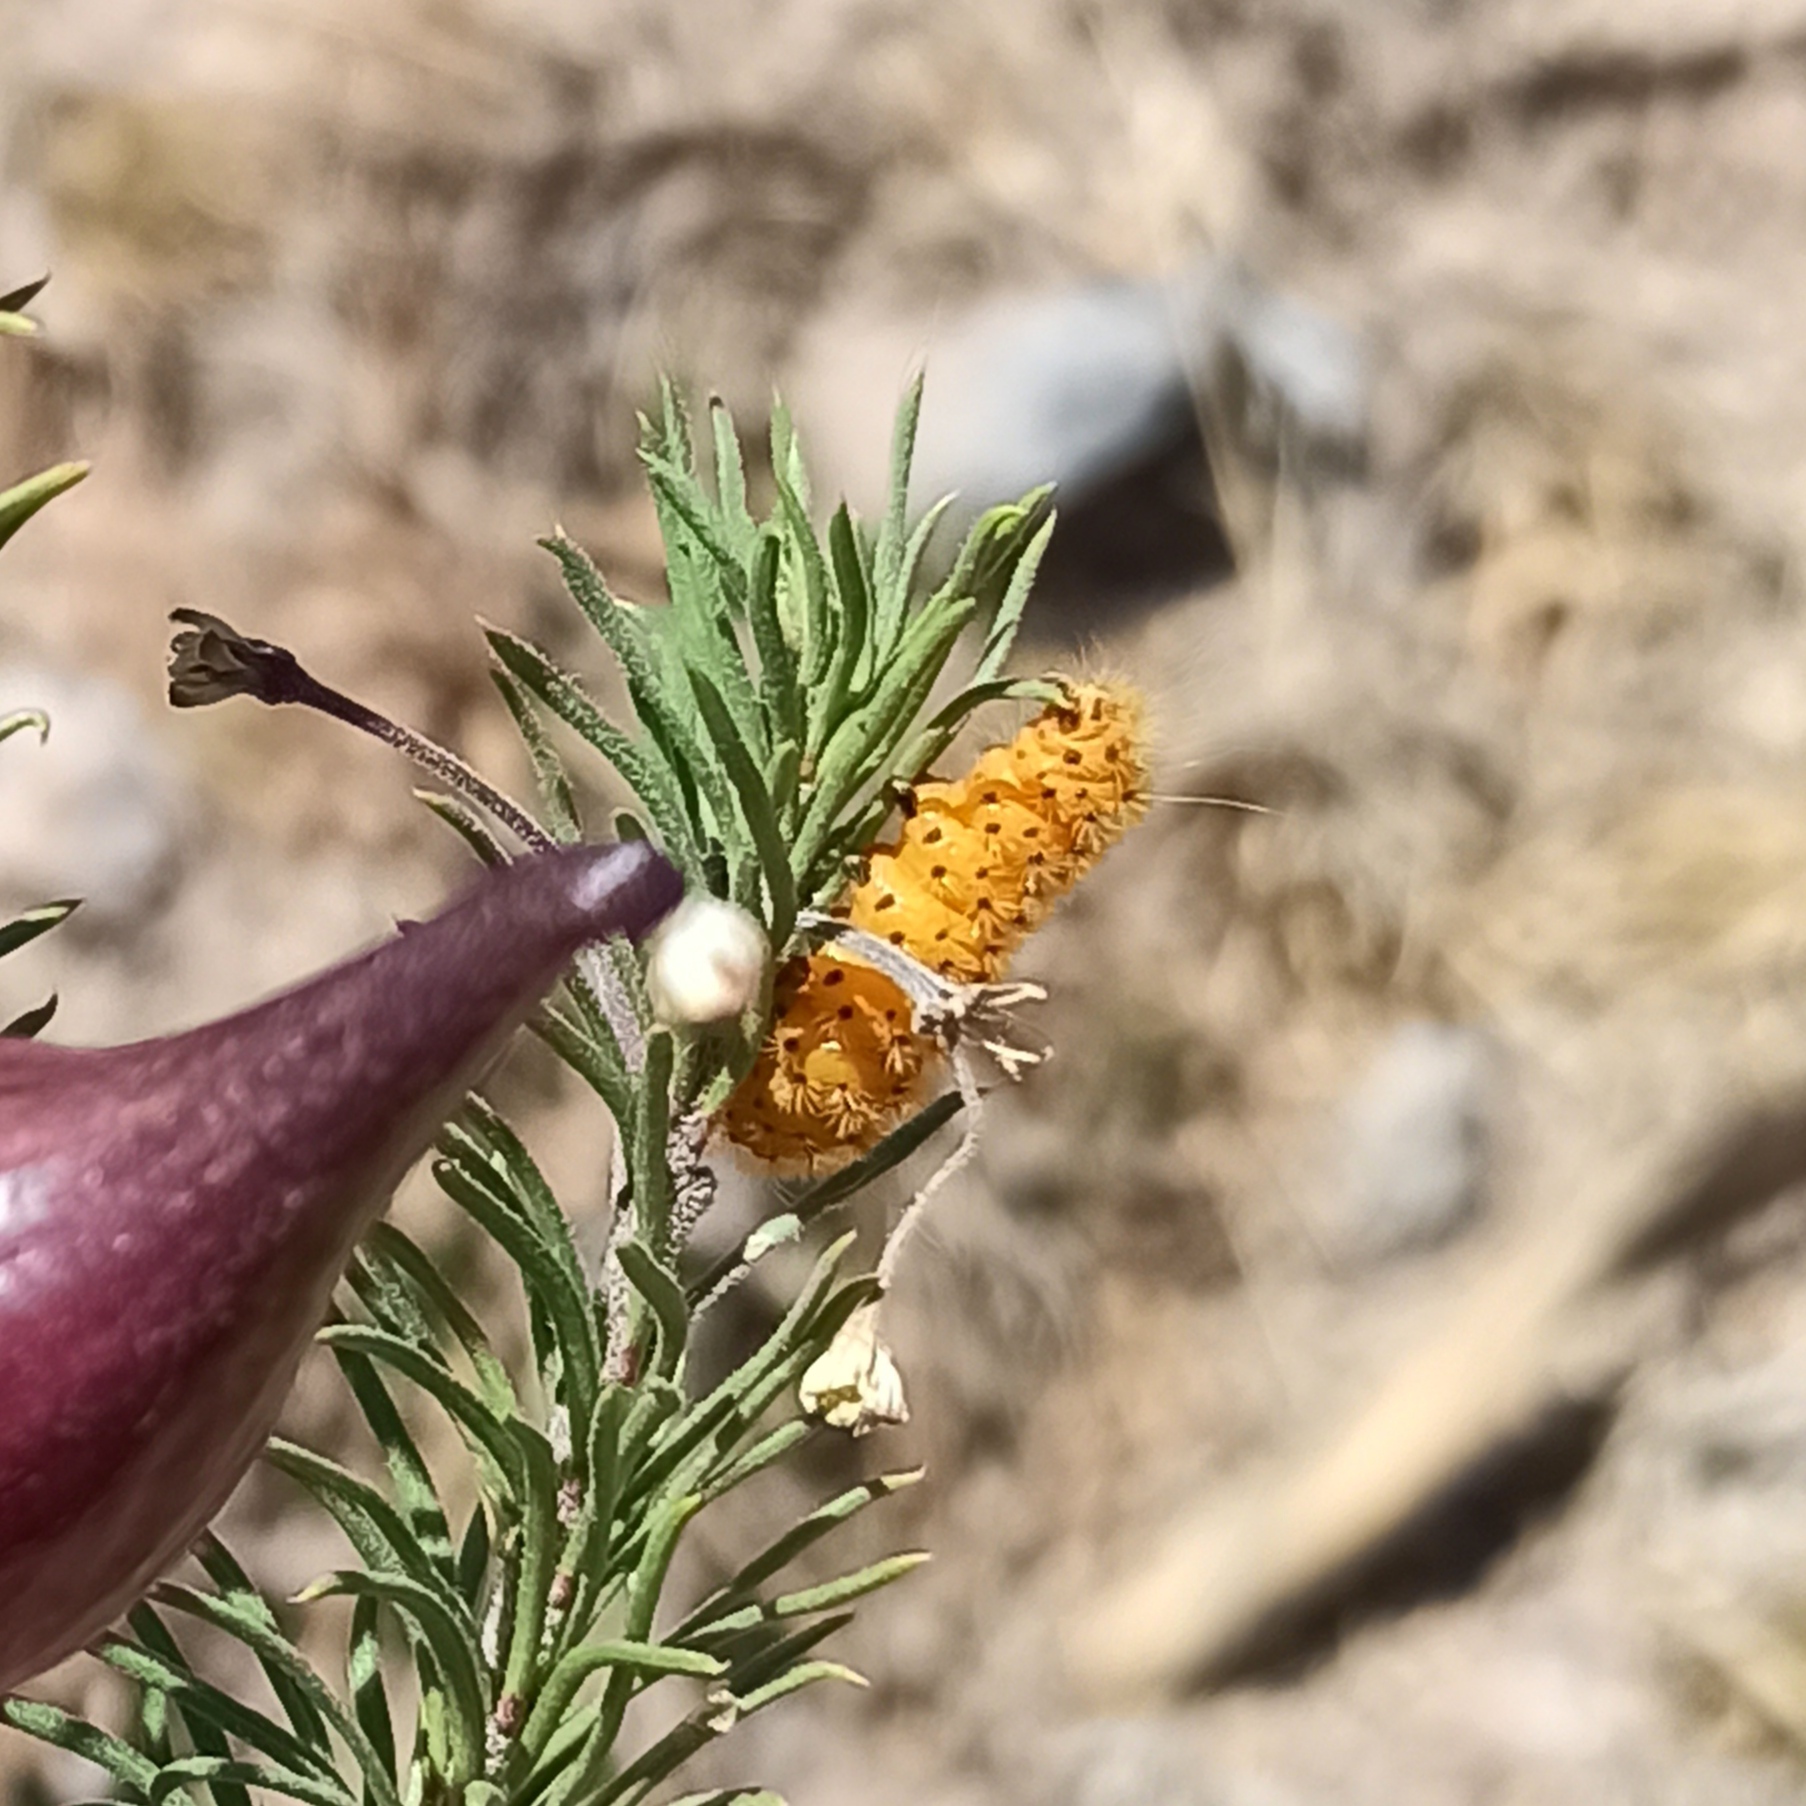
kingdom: Animalia
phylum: Arthropoda
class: Insecta
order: Lepidoptera
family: Erebidae
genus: Lerina
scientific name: Lerina incarnata
